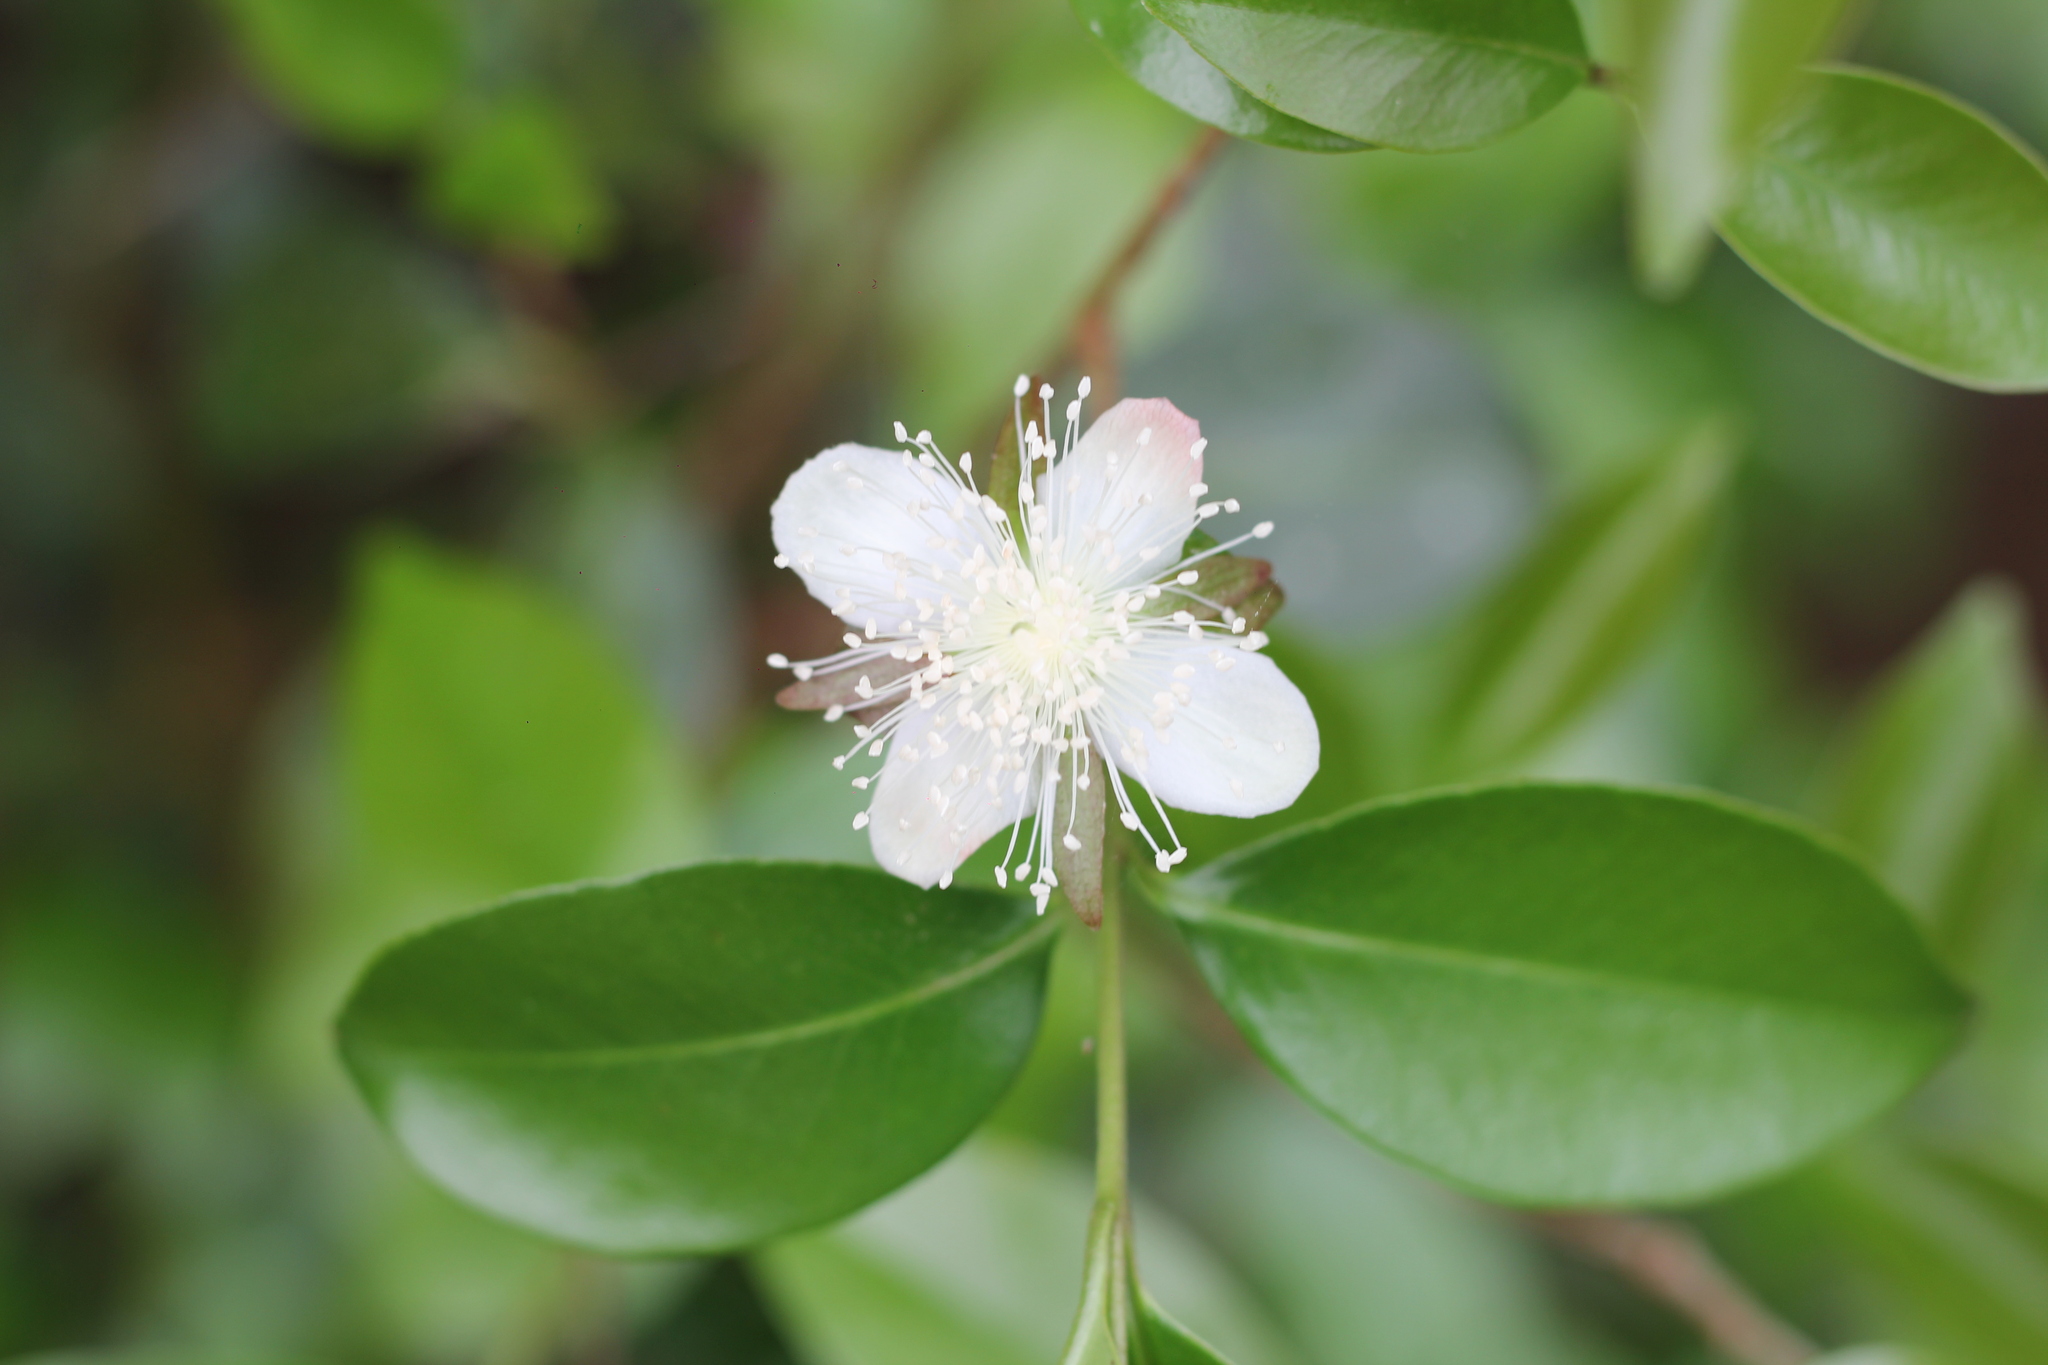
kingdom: Plantae
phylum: Tracheophyta
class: Magnoliopsida
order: Myrtales
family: Myrtaceae
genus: Eugenia
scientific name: Eugenia uniflora
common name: Surinam cherry
